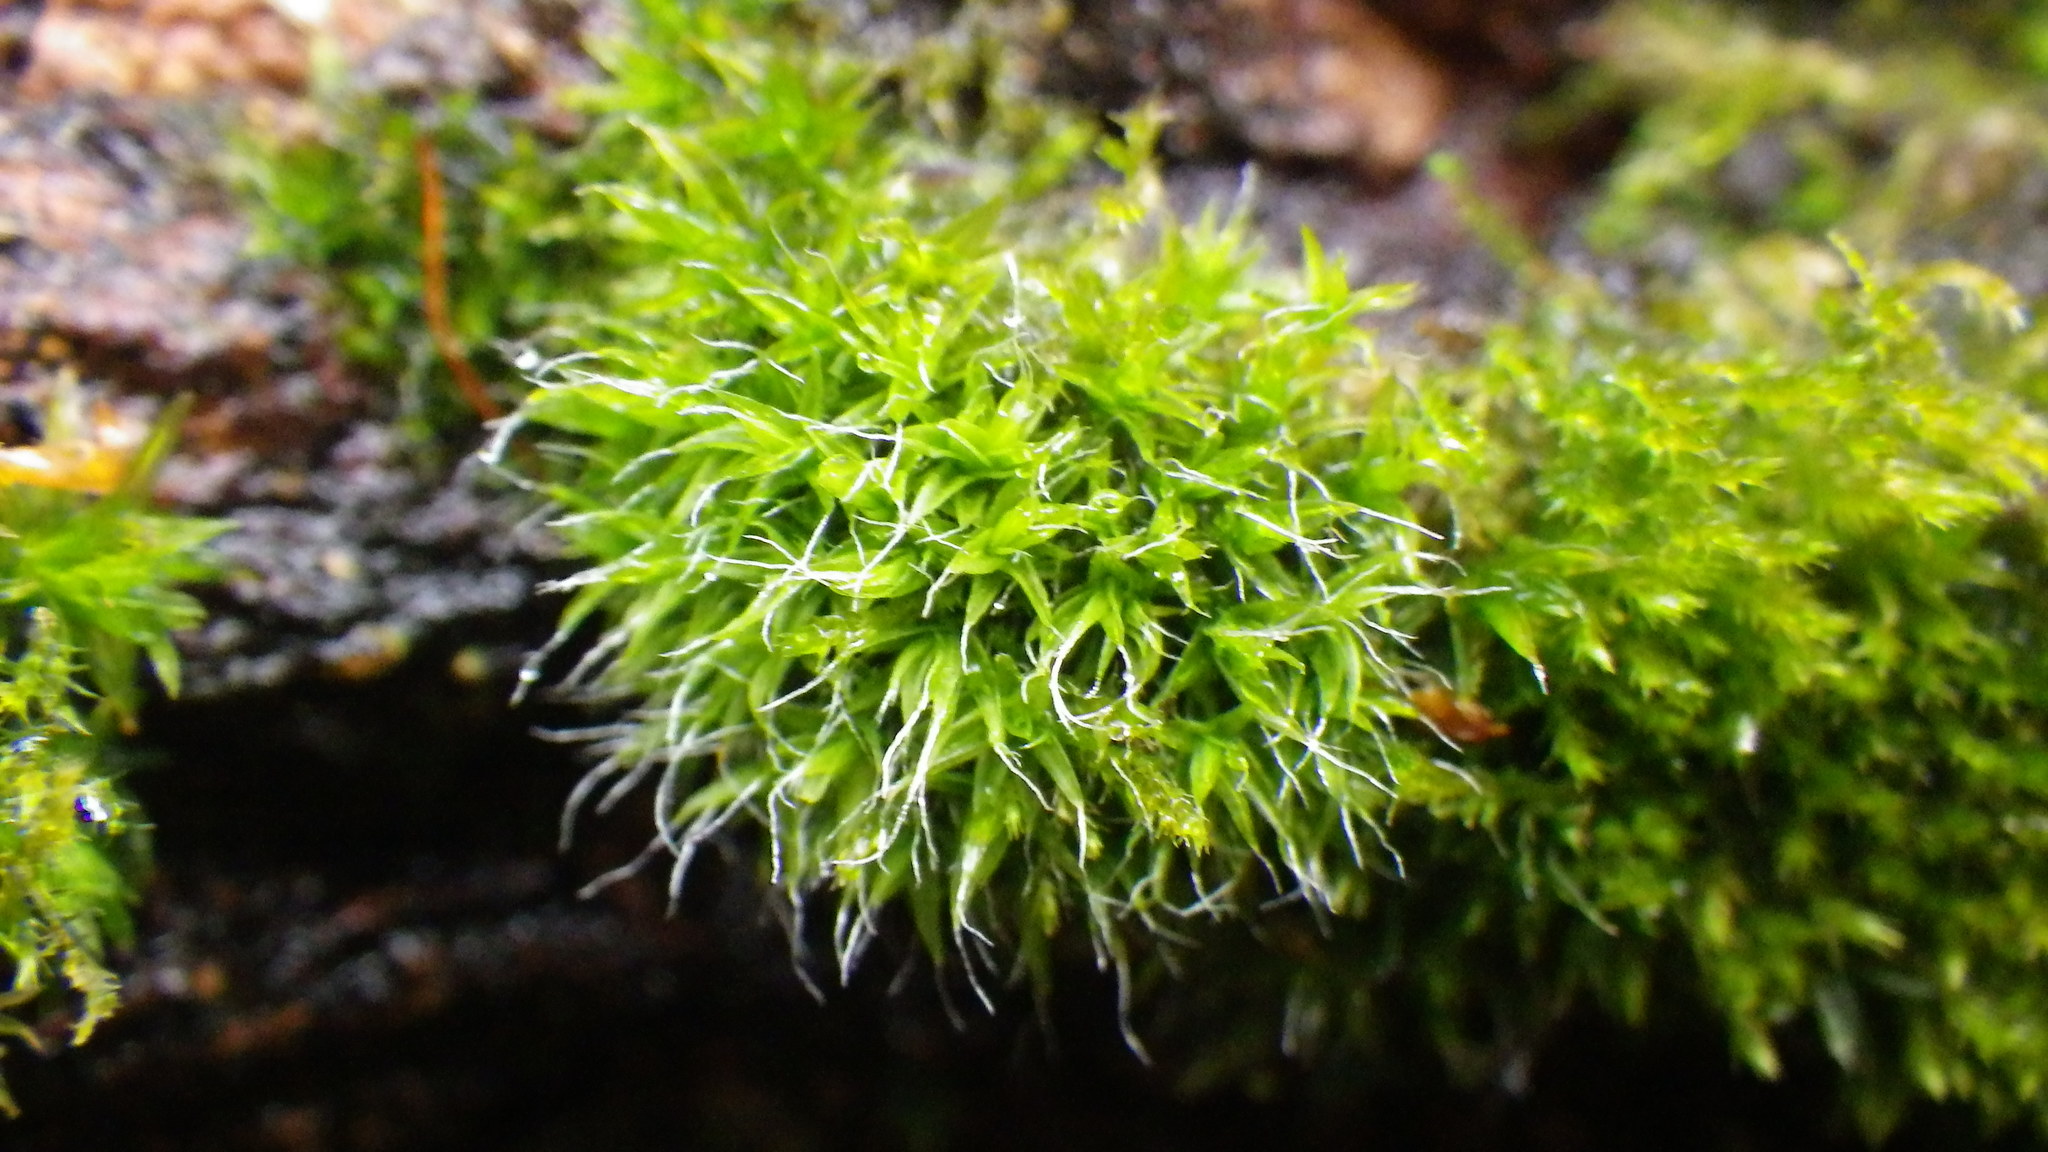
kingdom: Plantae
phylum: Bryophyta
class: Bryopsida
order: Grimmiales
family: Grimmiaceae
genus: Grimmia
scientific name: Grimmia pulvinata
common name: Grey-cushioned grimmia
